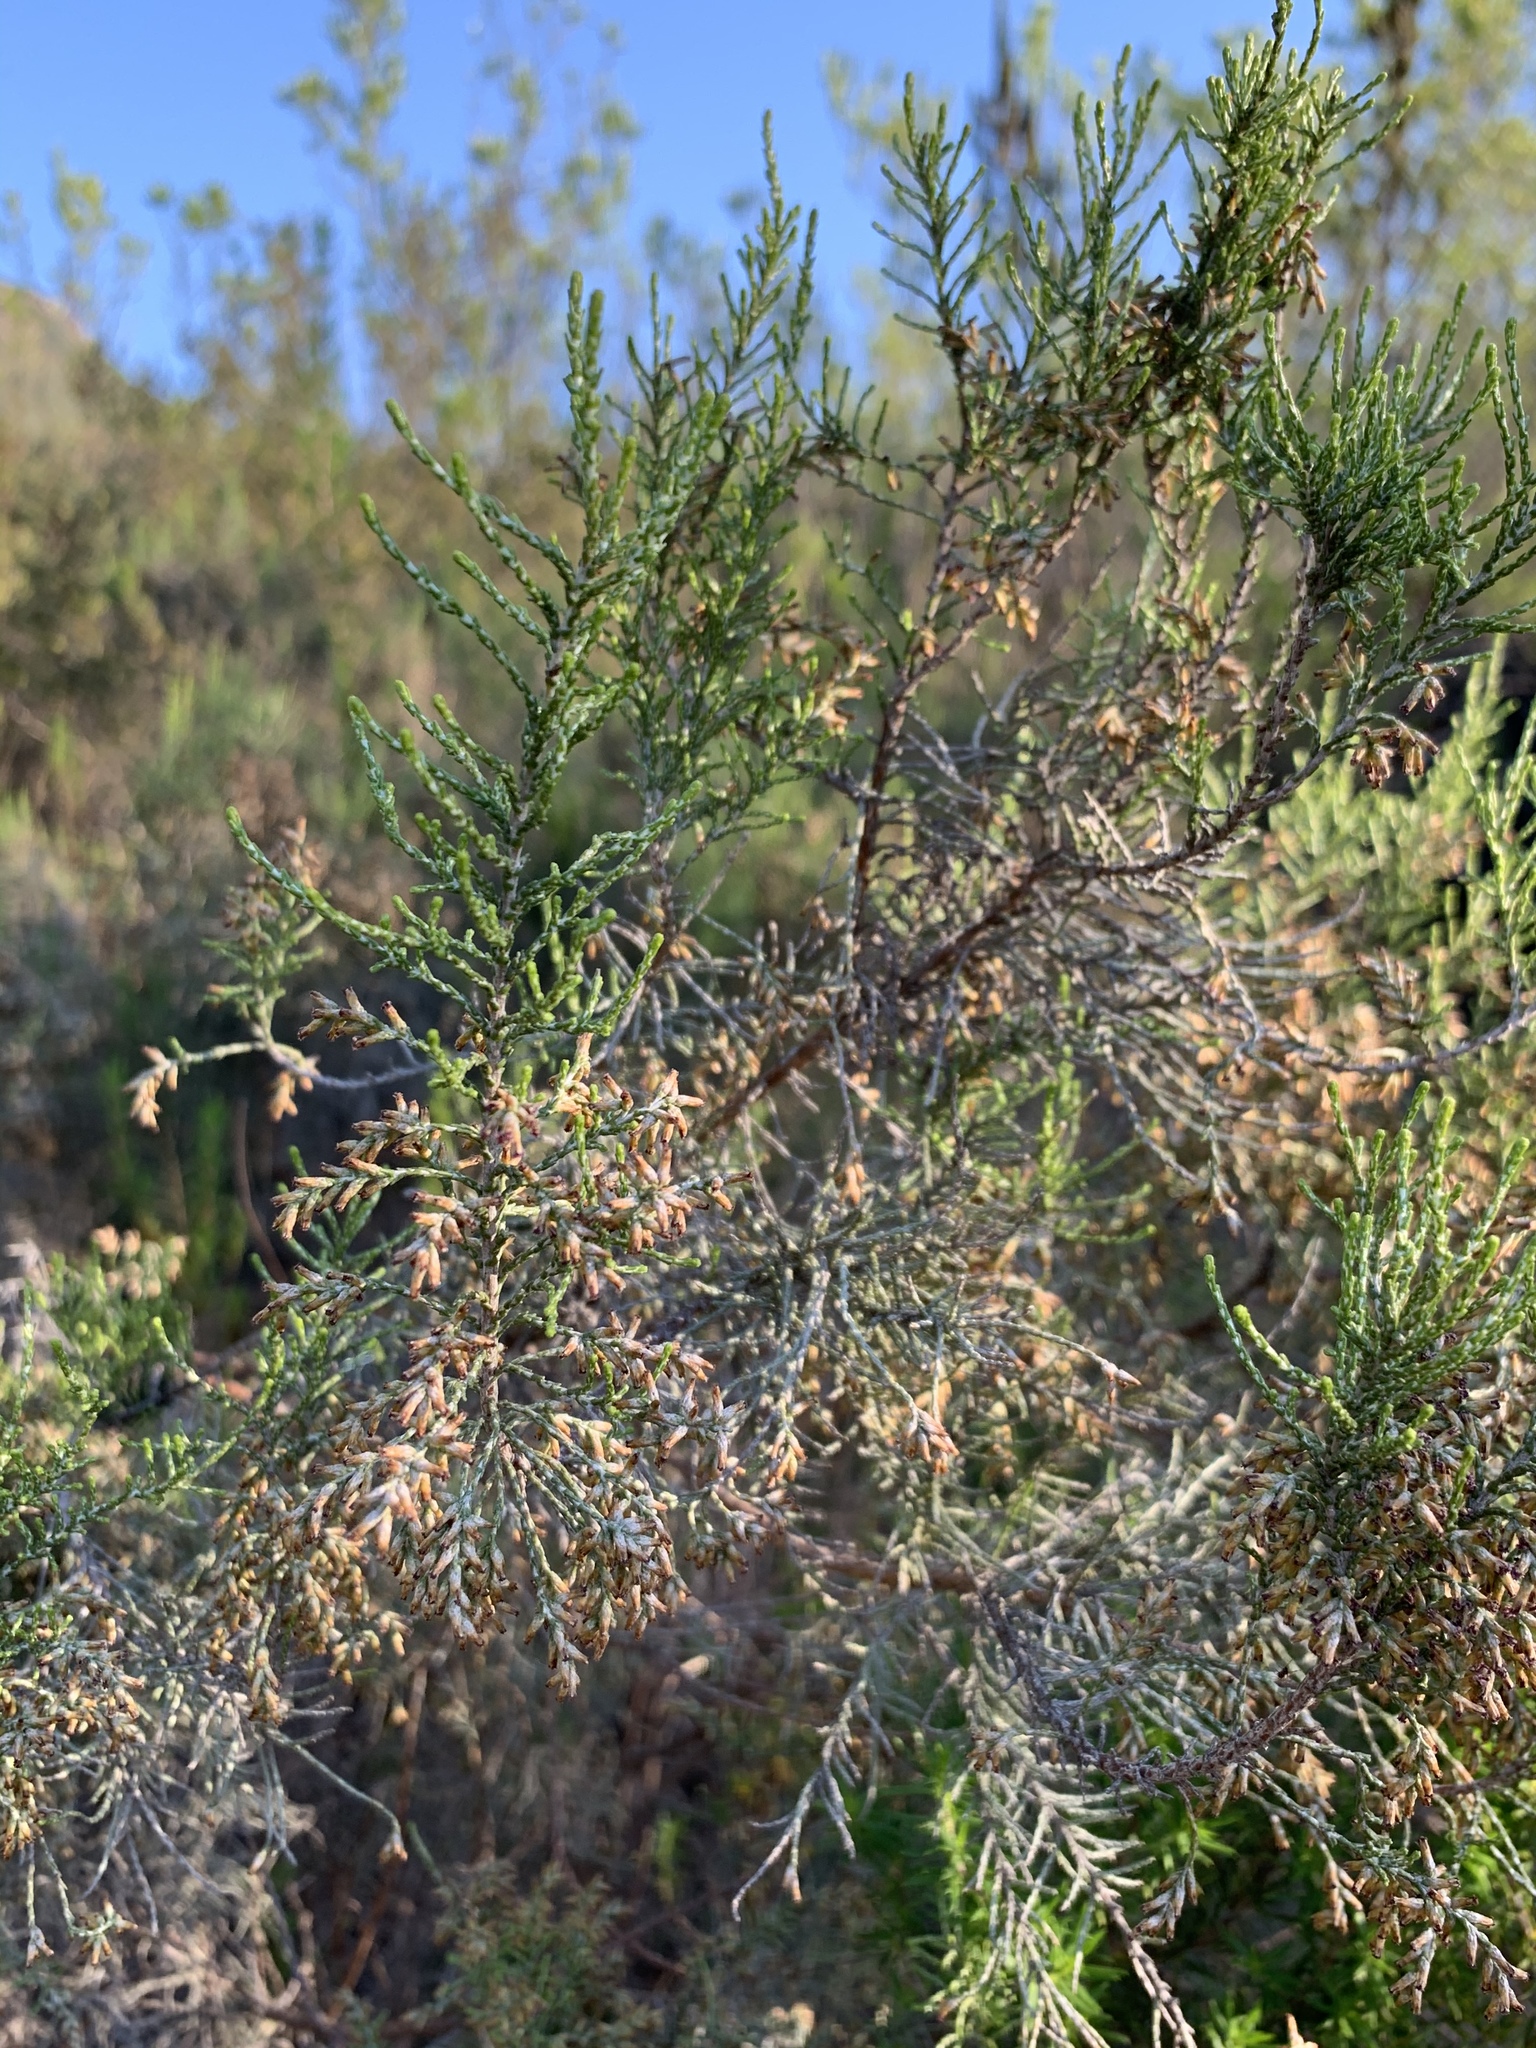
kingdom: Plantae
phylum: Tracheophyta
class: Magnoliopsida
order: Asterales
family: Asteraceae
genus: Dicerothamnus
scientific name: Dicerothamnus rhinocerotis
